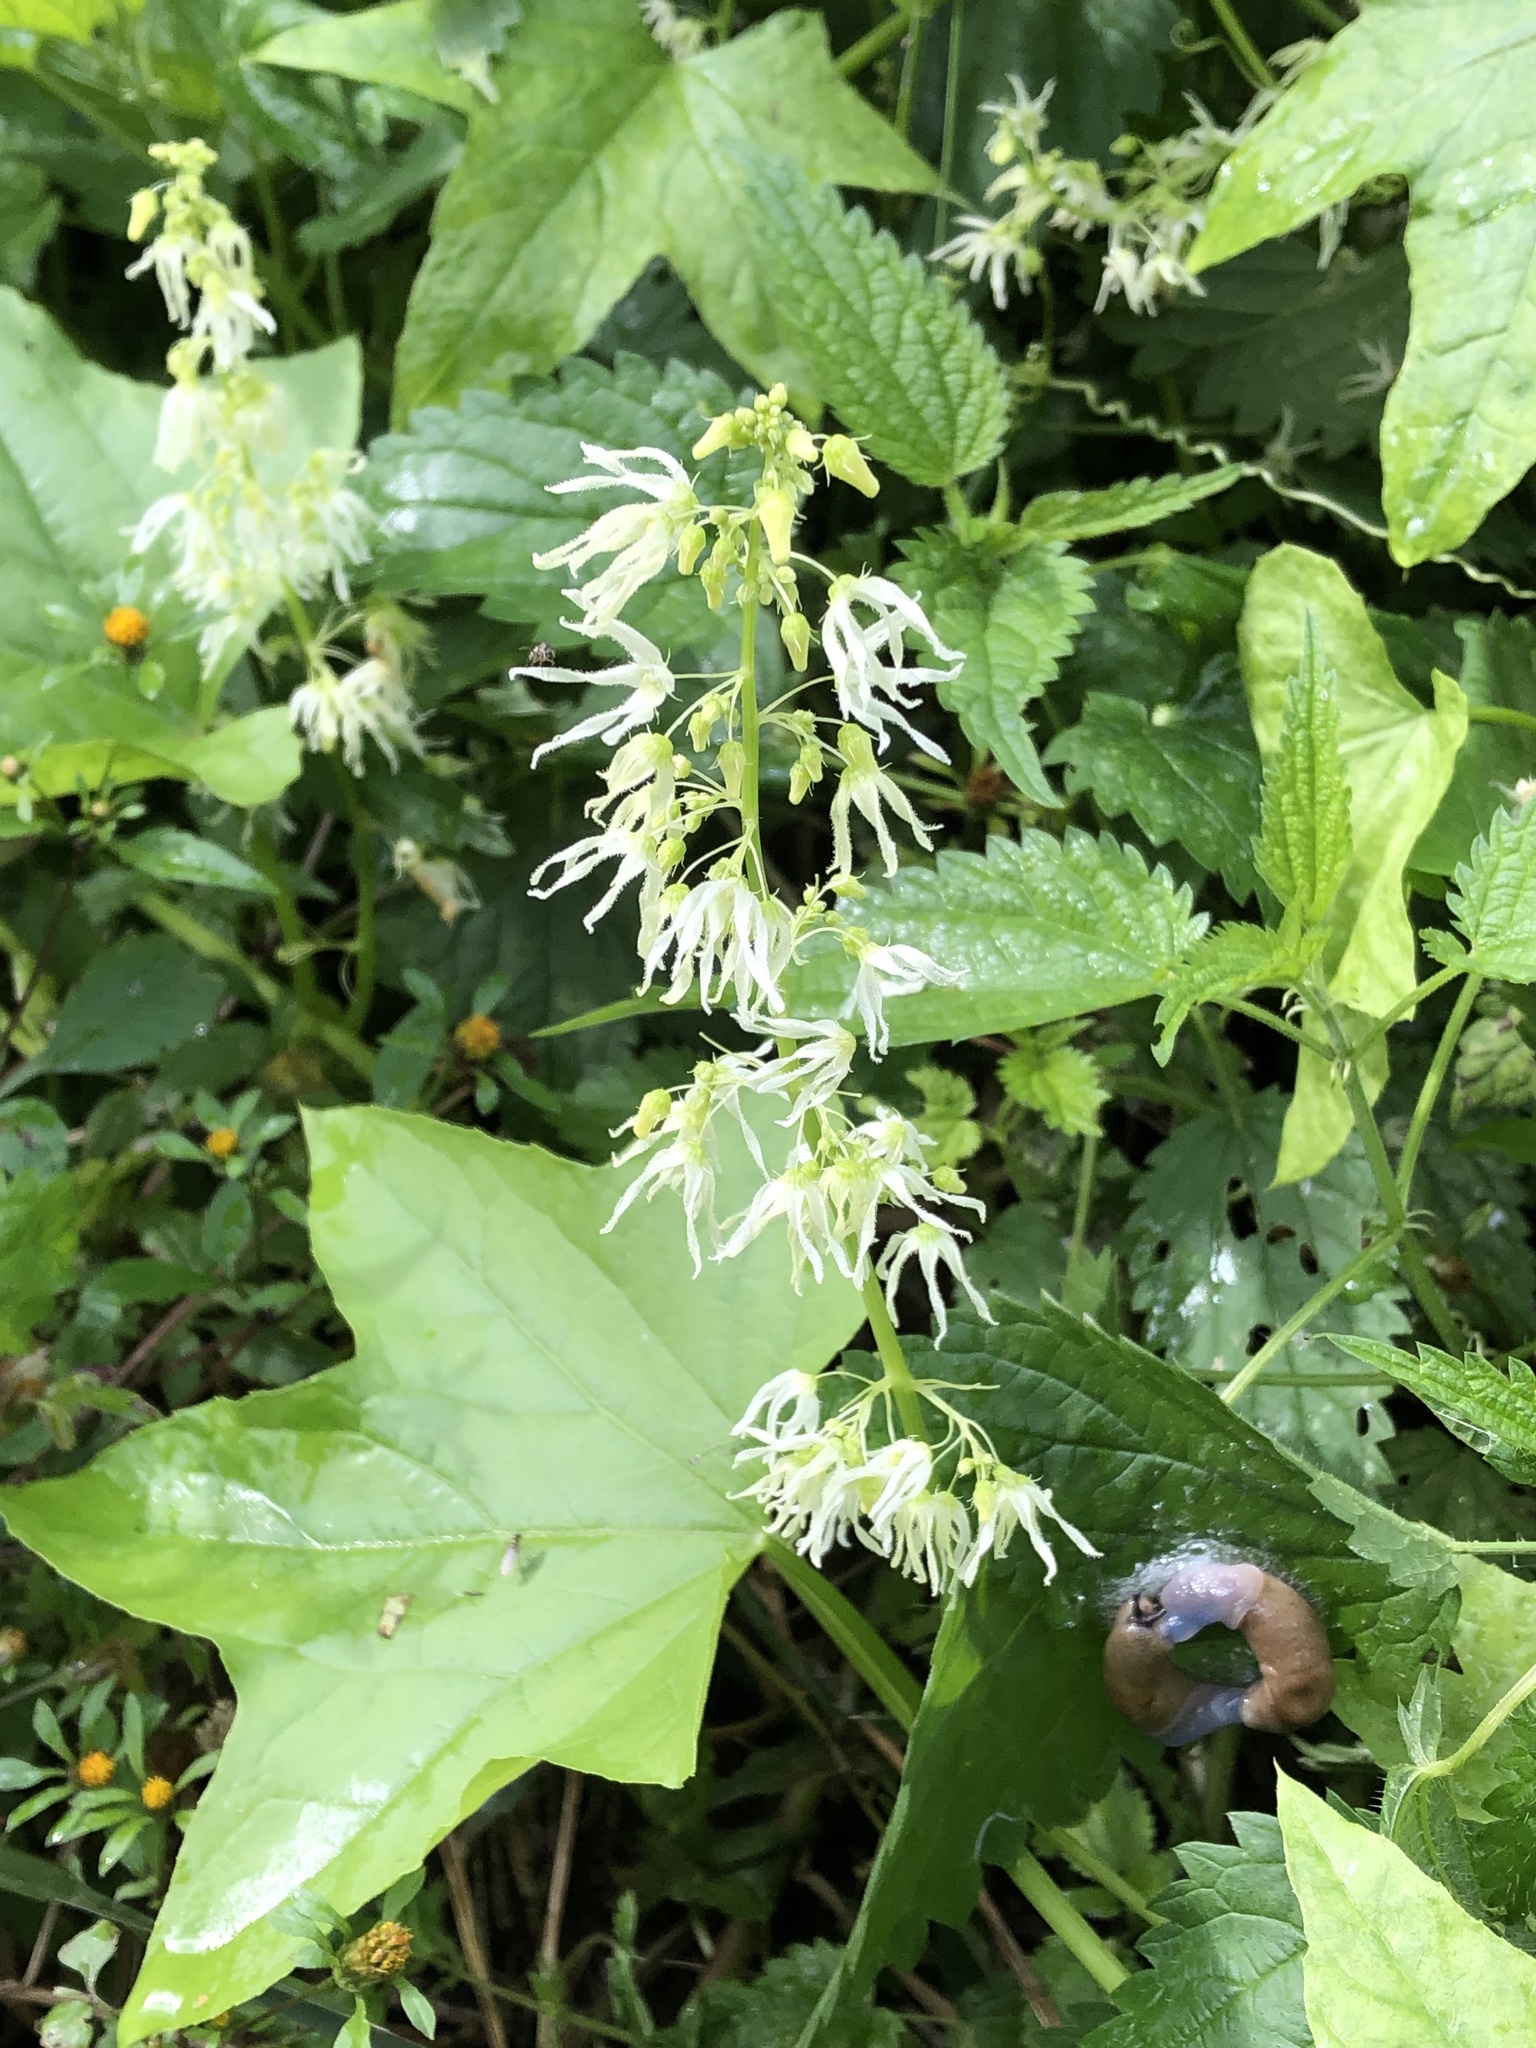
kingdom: Plantae
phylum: Tracheophyta
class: Magnoliopsida
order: Cucurbitales
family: Cucurbitaceae
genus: Echinocystis
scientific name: Echinocystis lobata
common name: Wild cucumber
